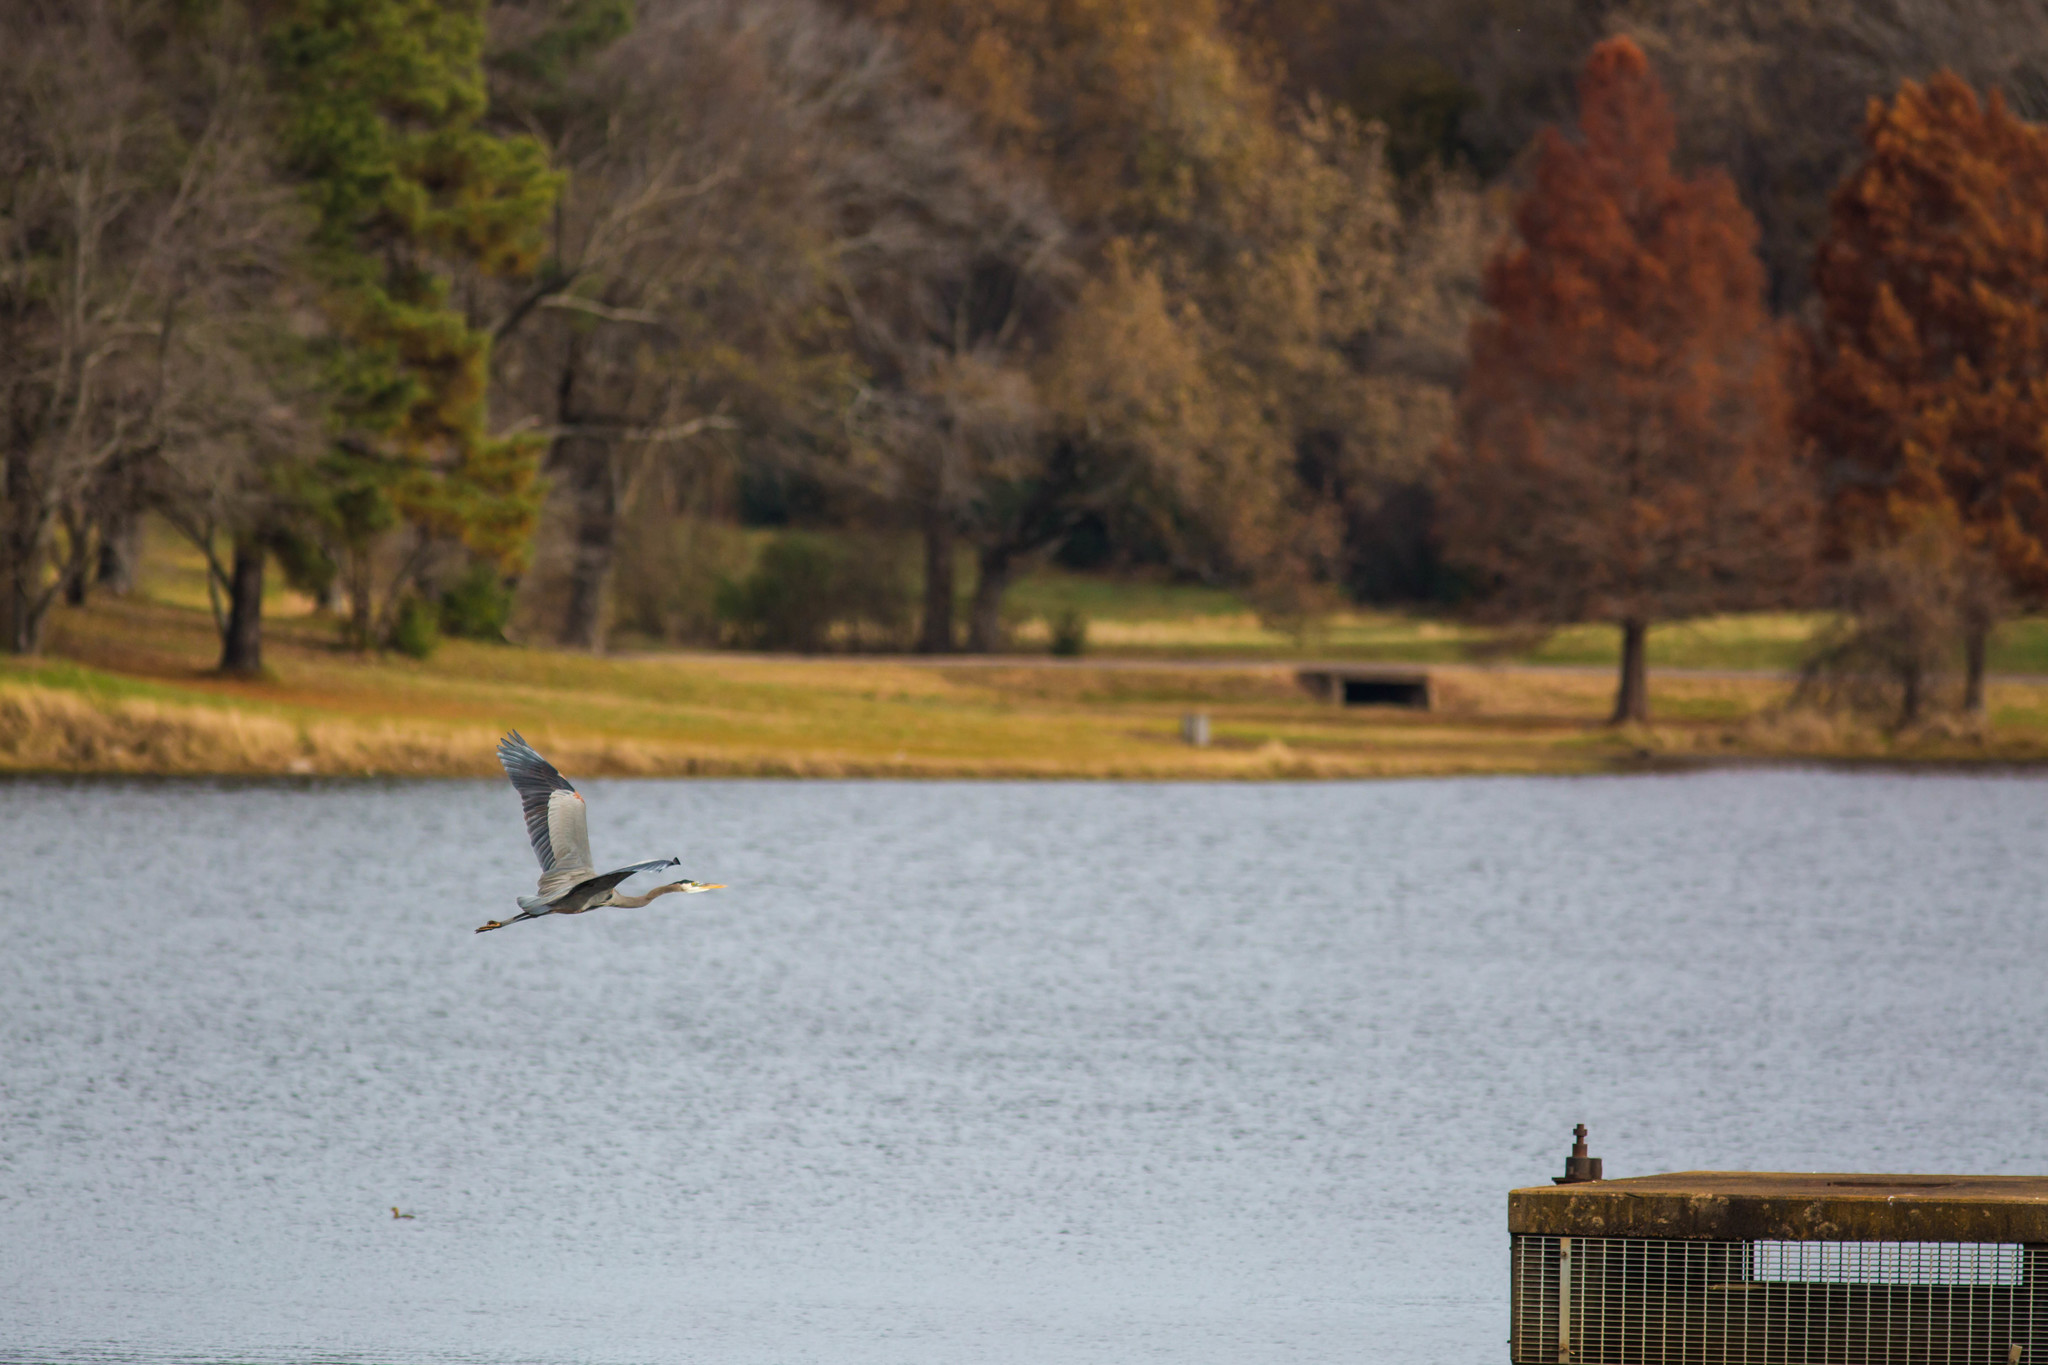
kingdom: Animalia
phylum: Chordata
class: Aves
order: Pelecaniformes
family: Ardeidae
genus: Ardea
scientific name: Ardea herodias
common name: Great blue heron
